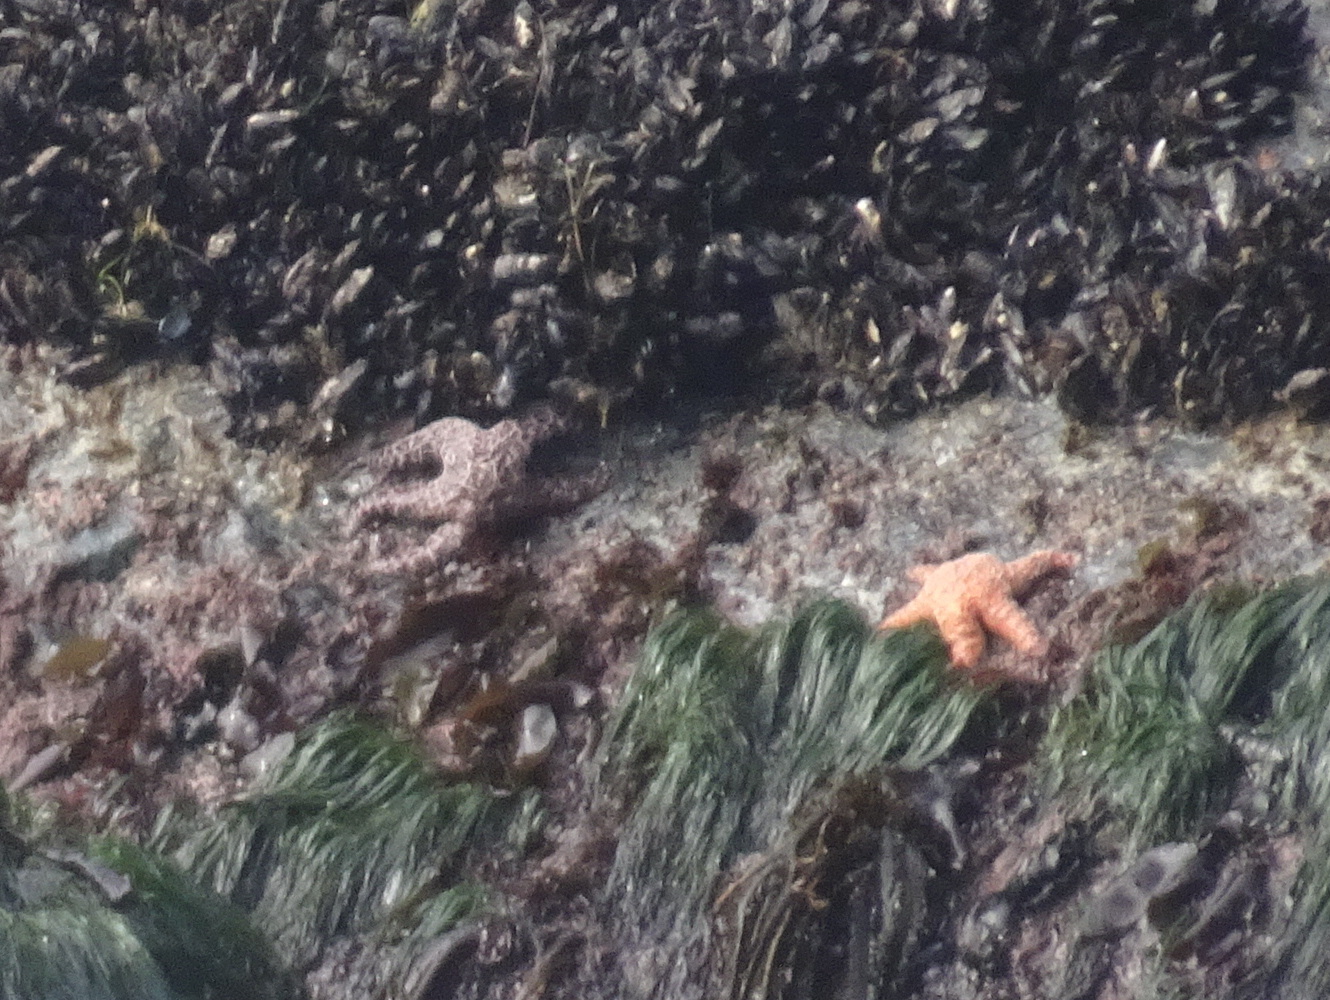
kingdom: Animalia
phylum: Echinodermata
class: Asteroidea
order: Forcipulatida
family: Asteriidae
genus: Pisaster
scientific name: Pisaster ochraceus
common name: Ochre stars
